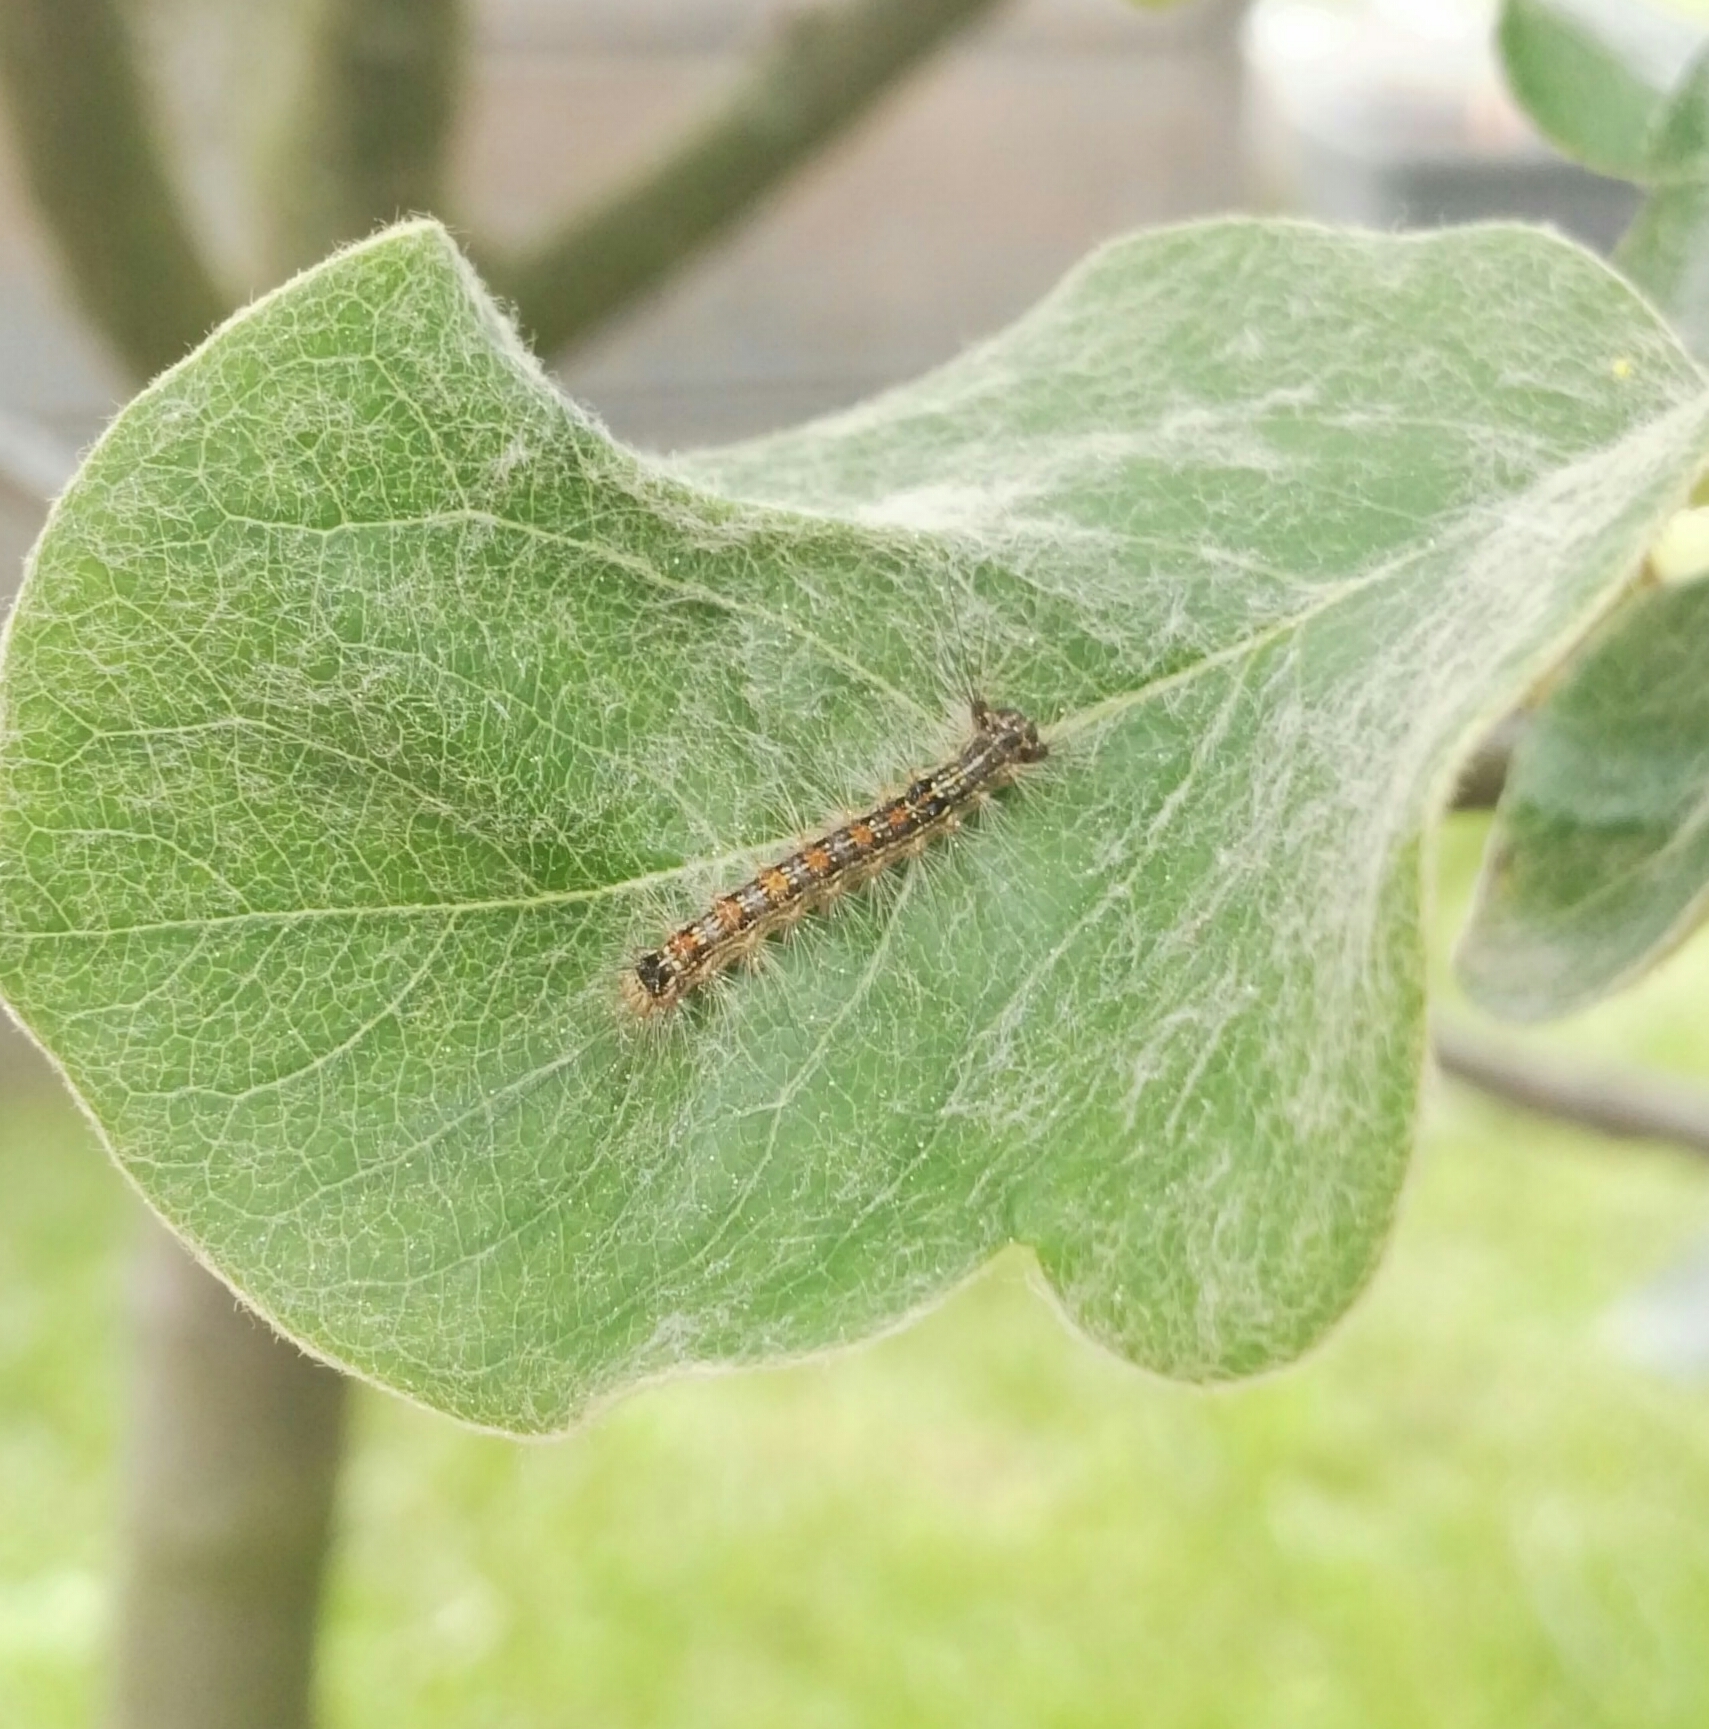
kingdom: Animalia
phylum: Arthropoda
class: Insecta
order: Lepidoptera
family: Erebidae
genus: Lymantria
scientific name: Lymantria dispar
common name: Gypsy moth
